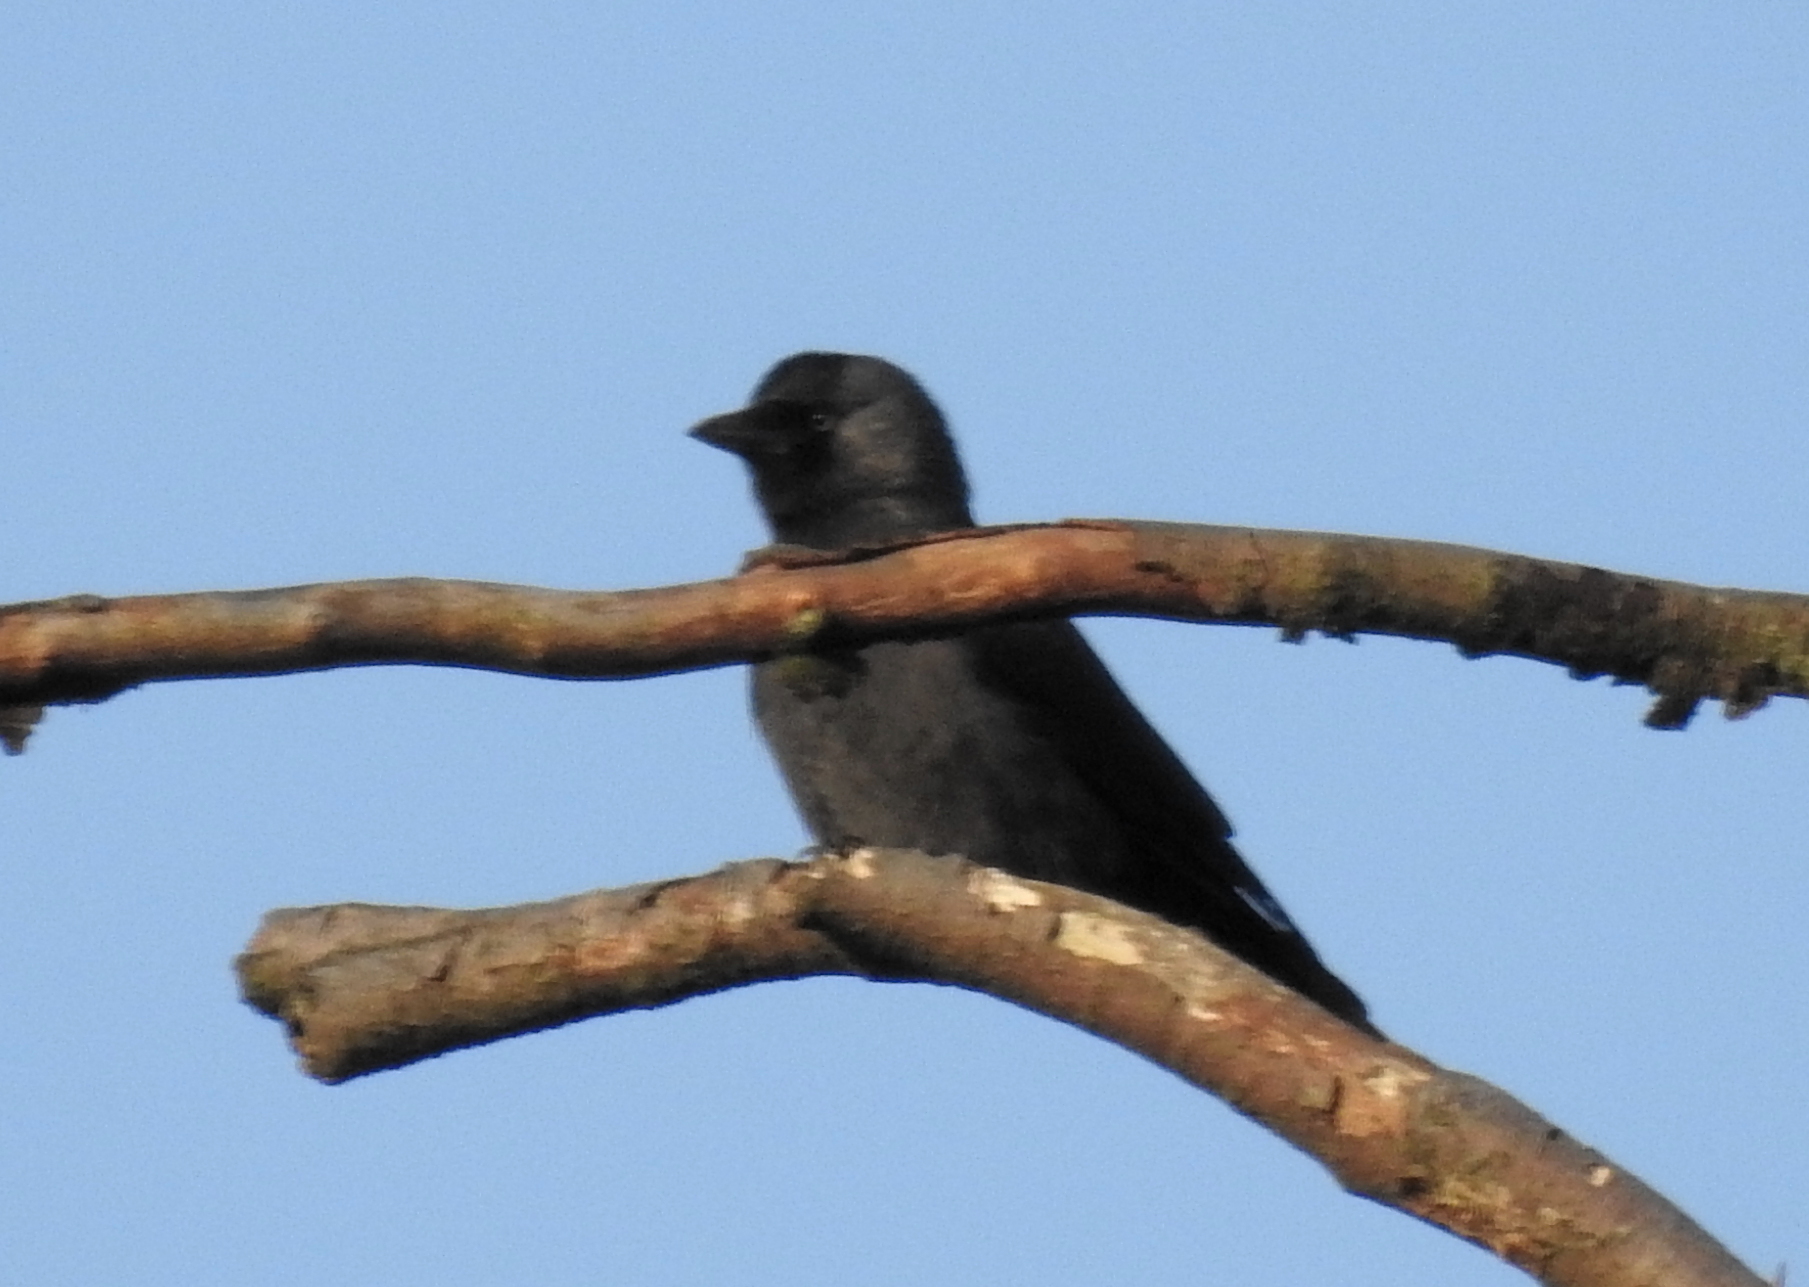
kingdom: Animalia
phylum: Chordata
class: Aves
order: Passeriformes
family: Corvidae
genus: Coloeus
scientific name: Coloeus monedula
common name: Western jackdaw
